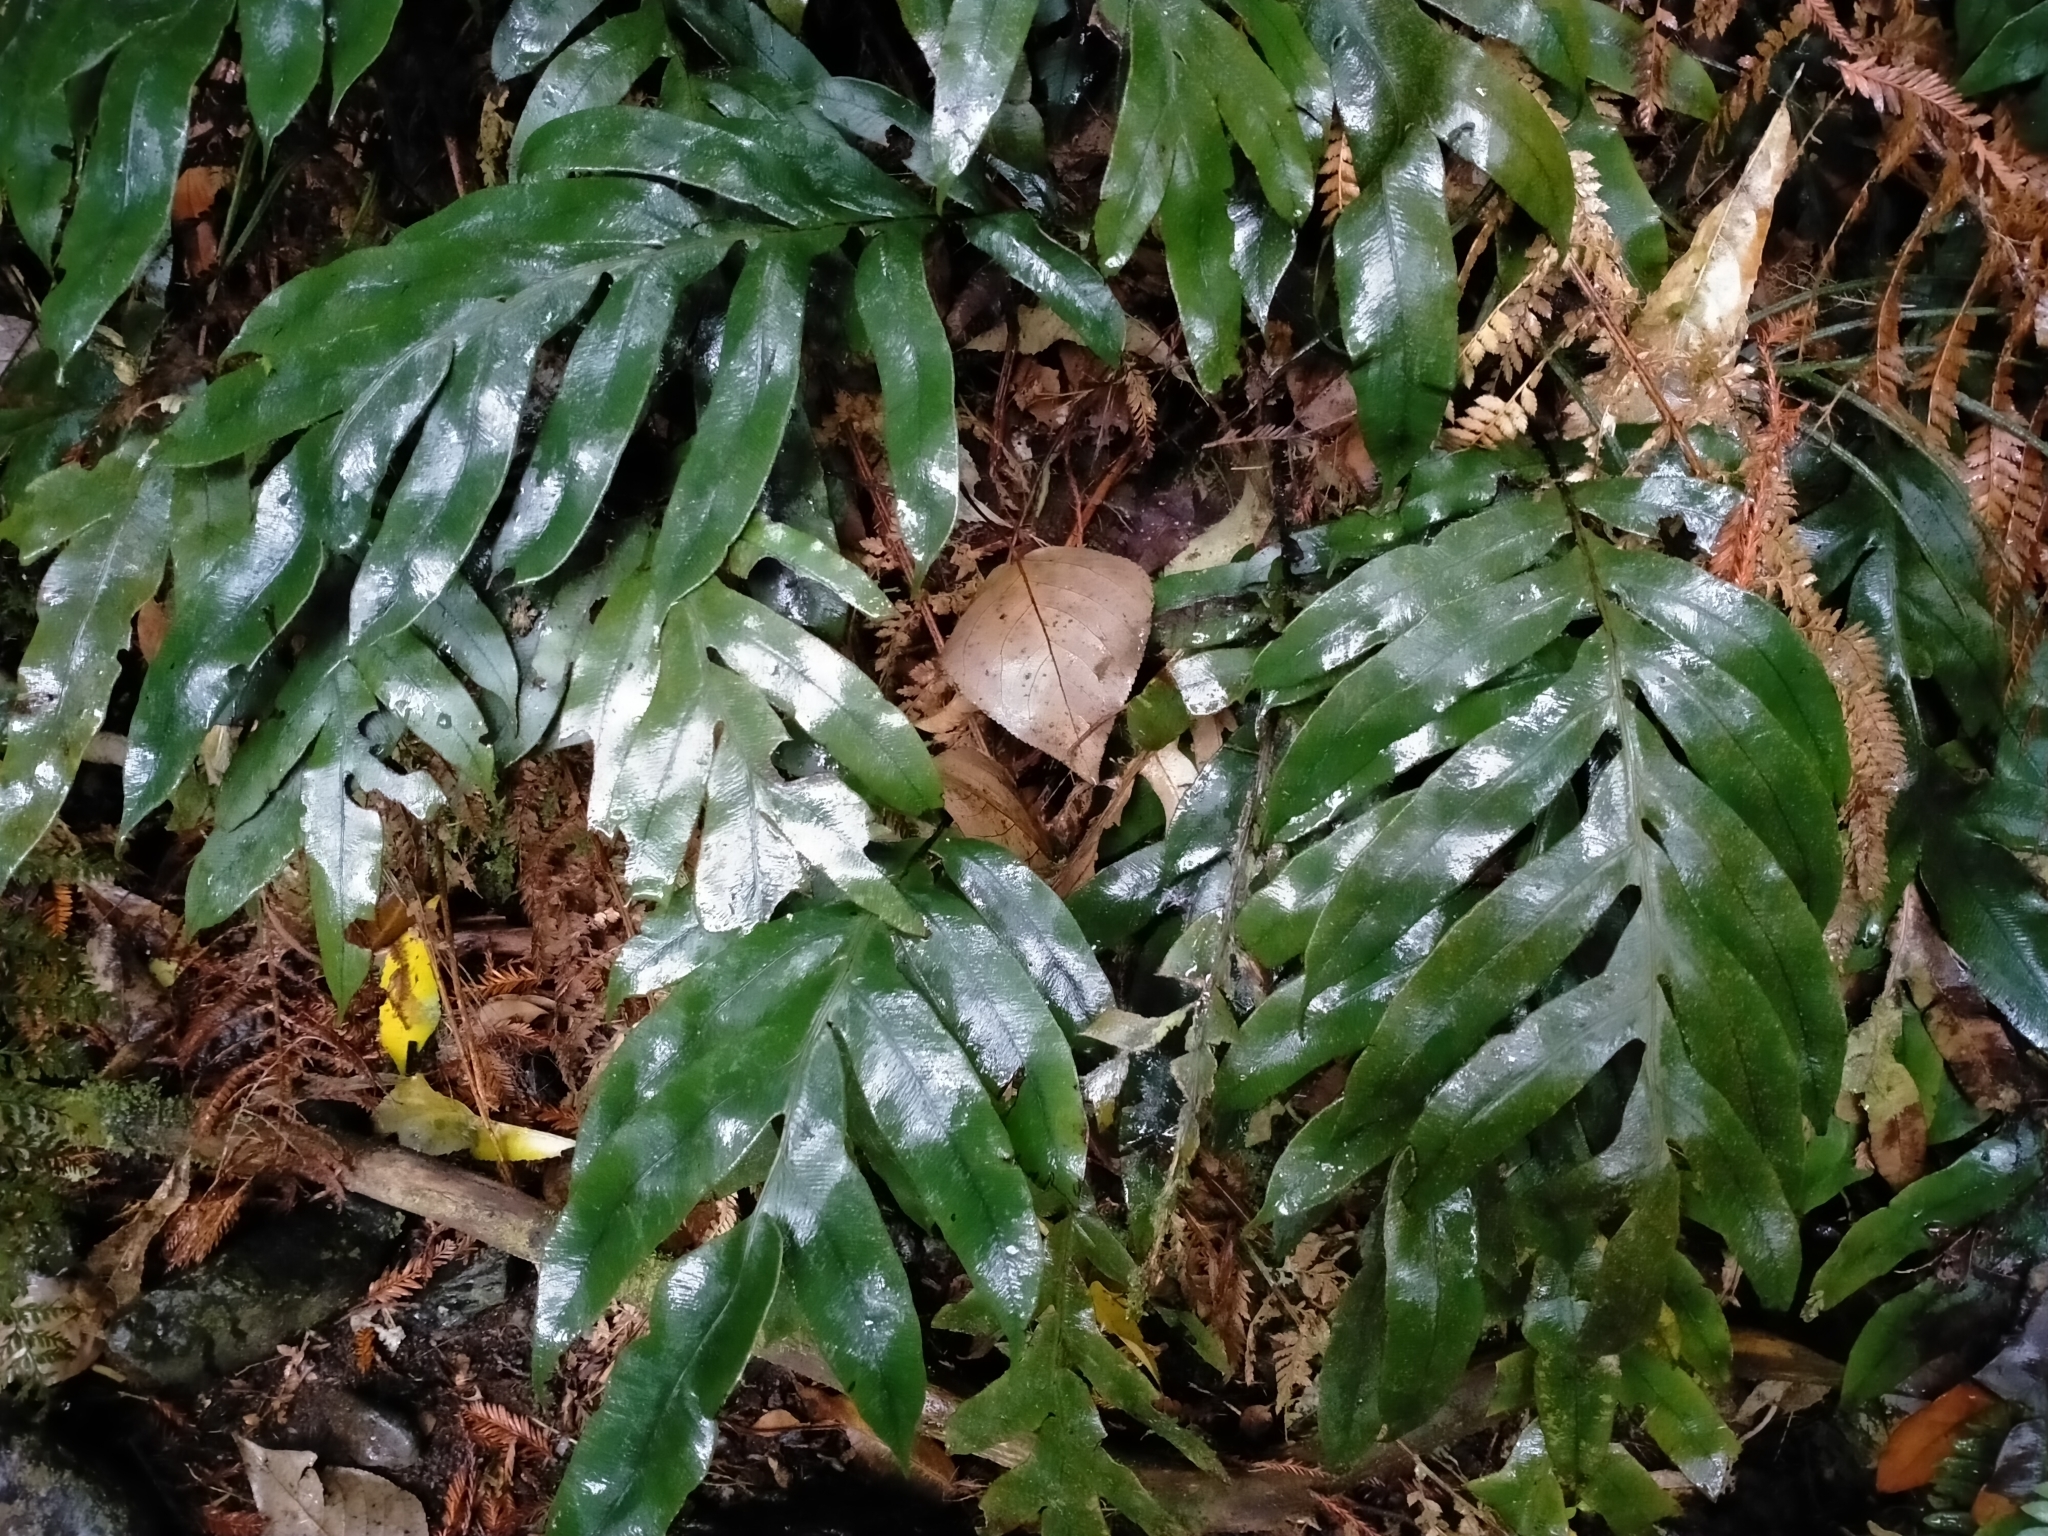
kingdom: Plantae
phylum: Tracheophyta
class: Polypodiopsida
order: Polypodiales
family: Blechnaceae
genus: Austroblechnum
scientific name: Austroblechnum colensoi
